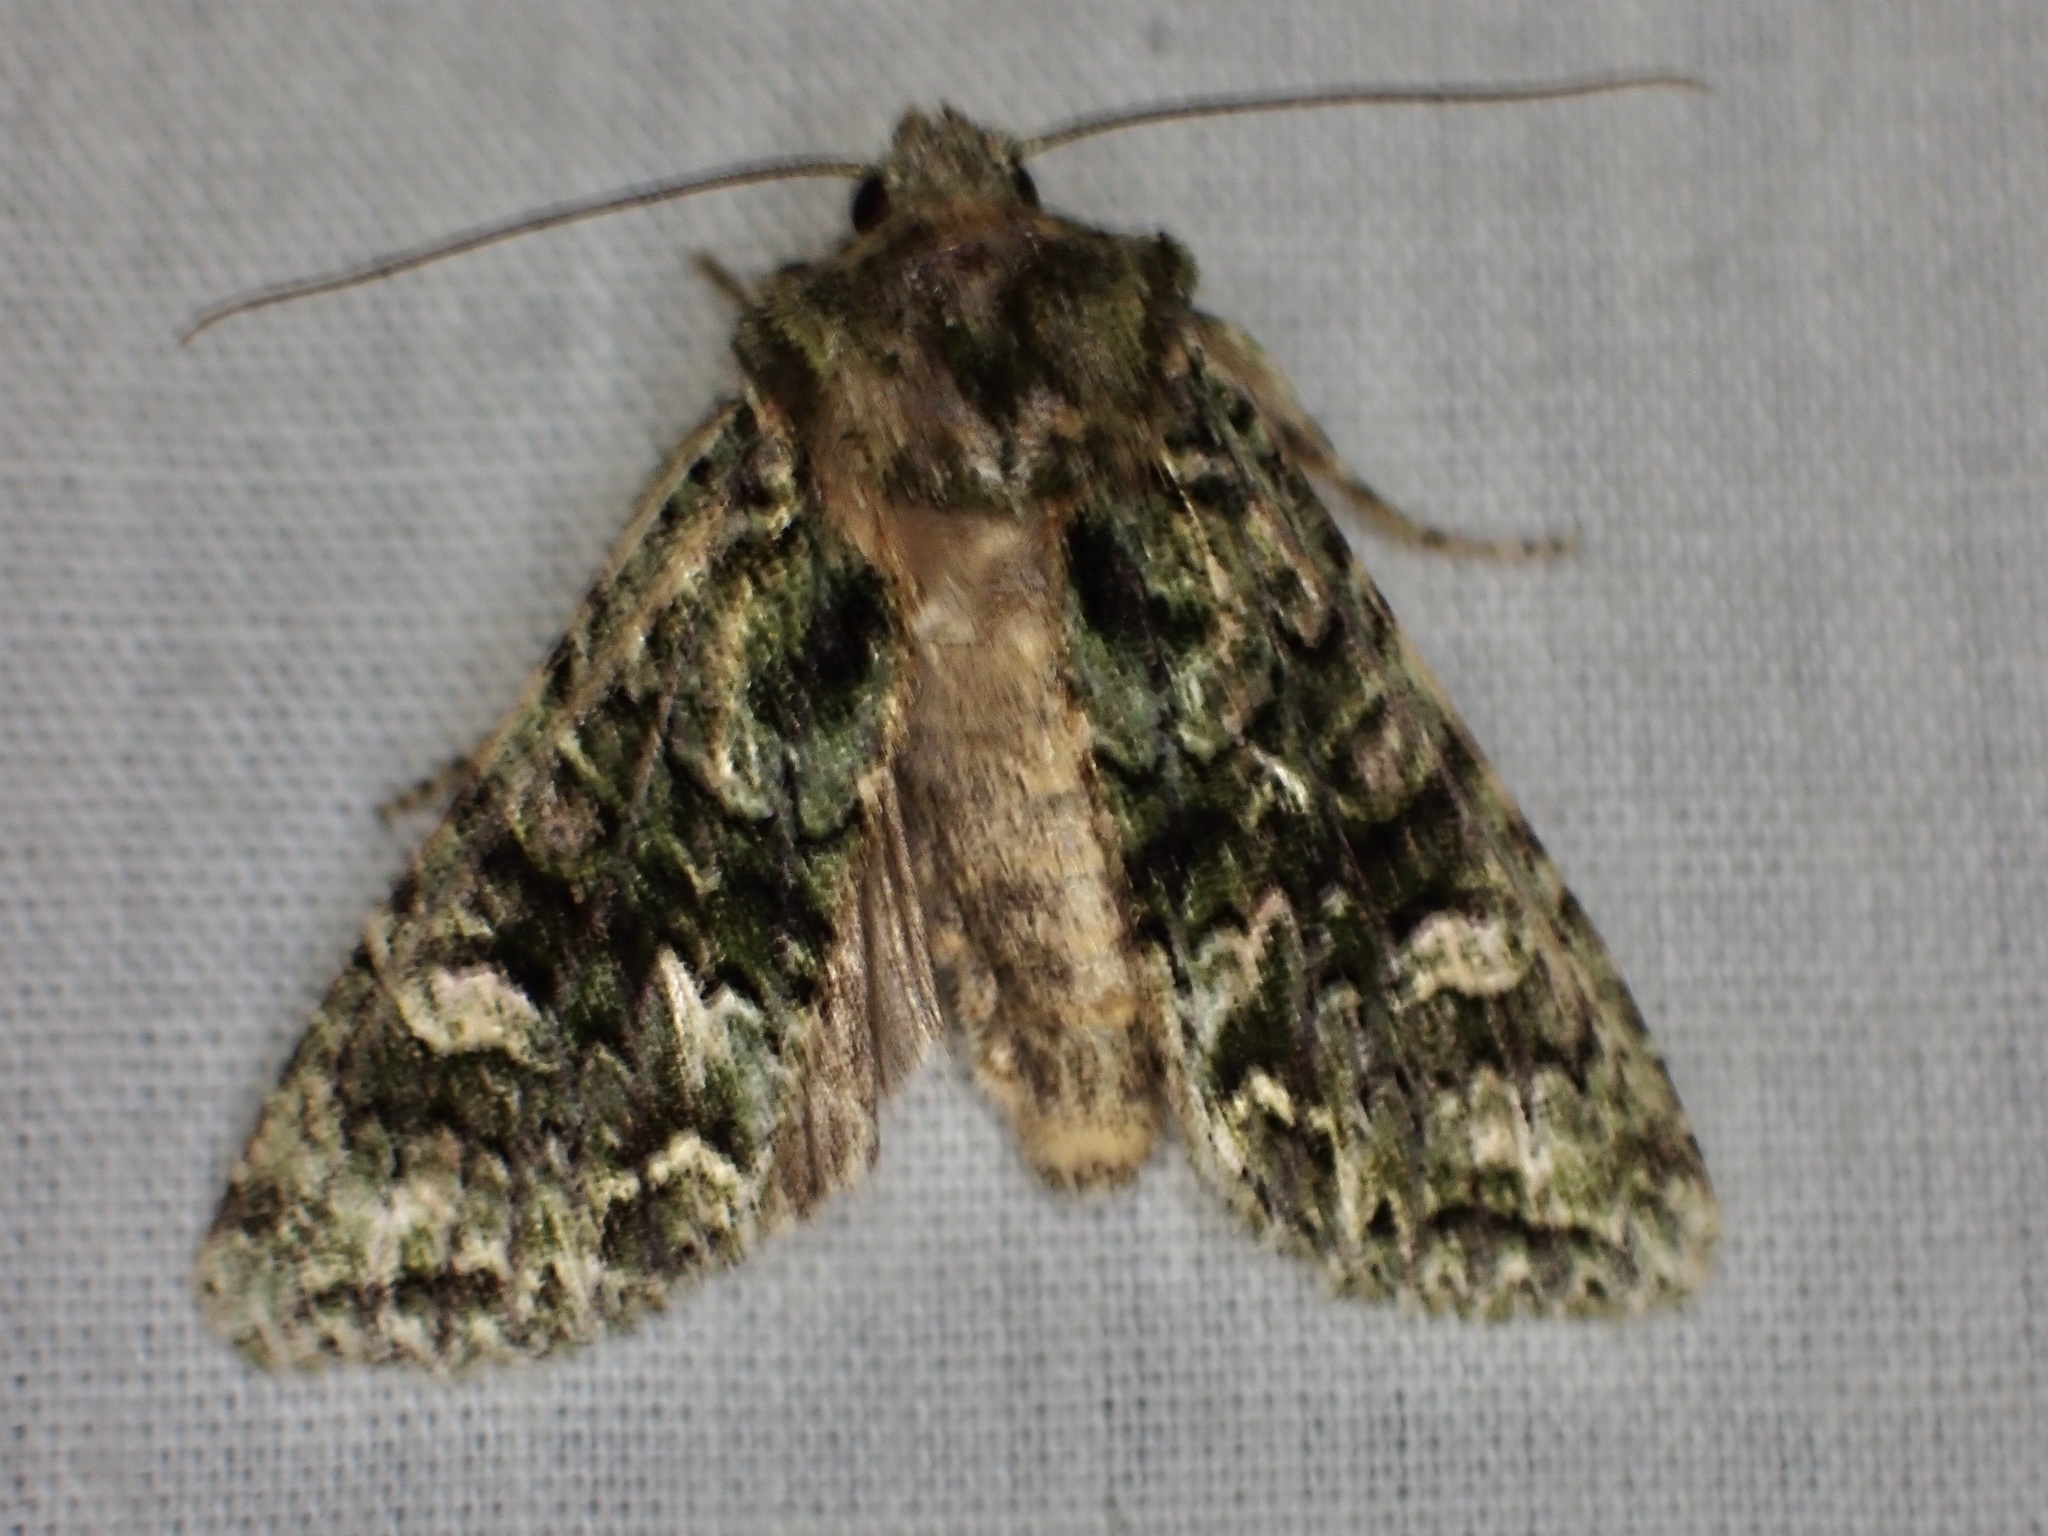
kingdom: Animalia
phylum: Arthropoda
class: Insecta
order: Lepidoptera
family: Noctuidae
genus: Ichneutica
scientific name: Ichneutica
